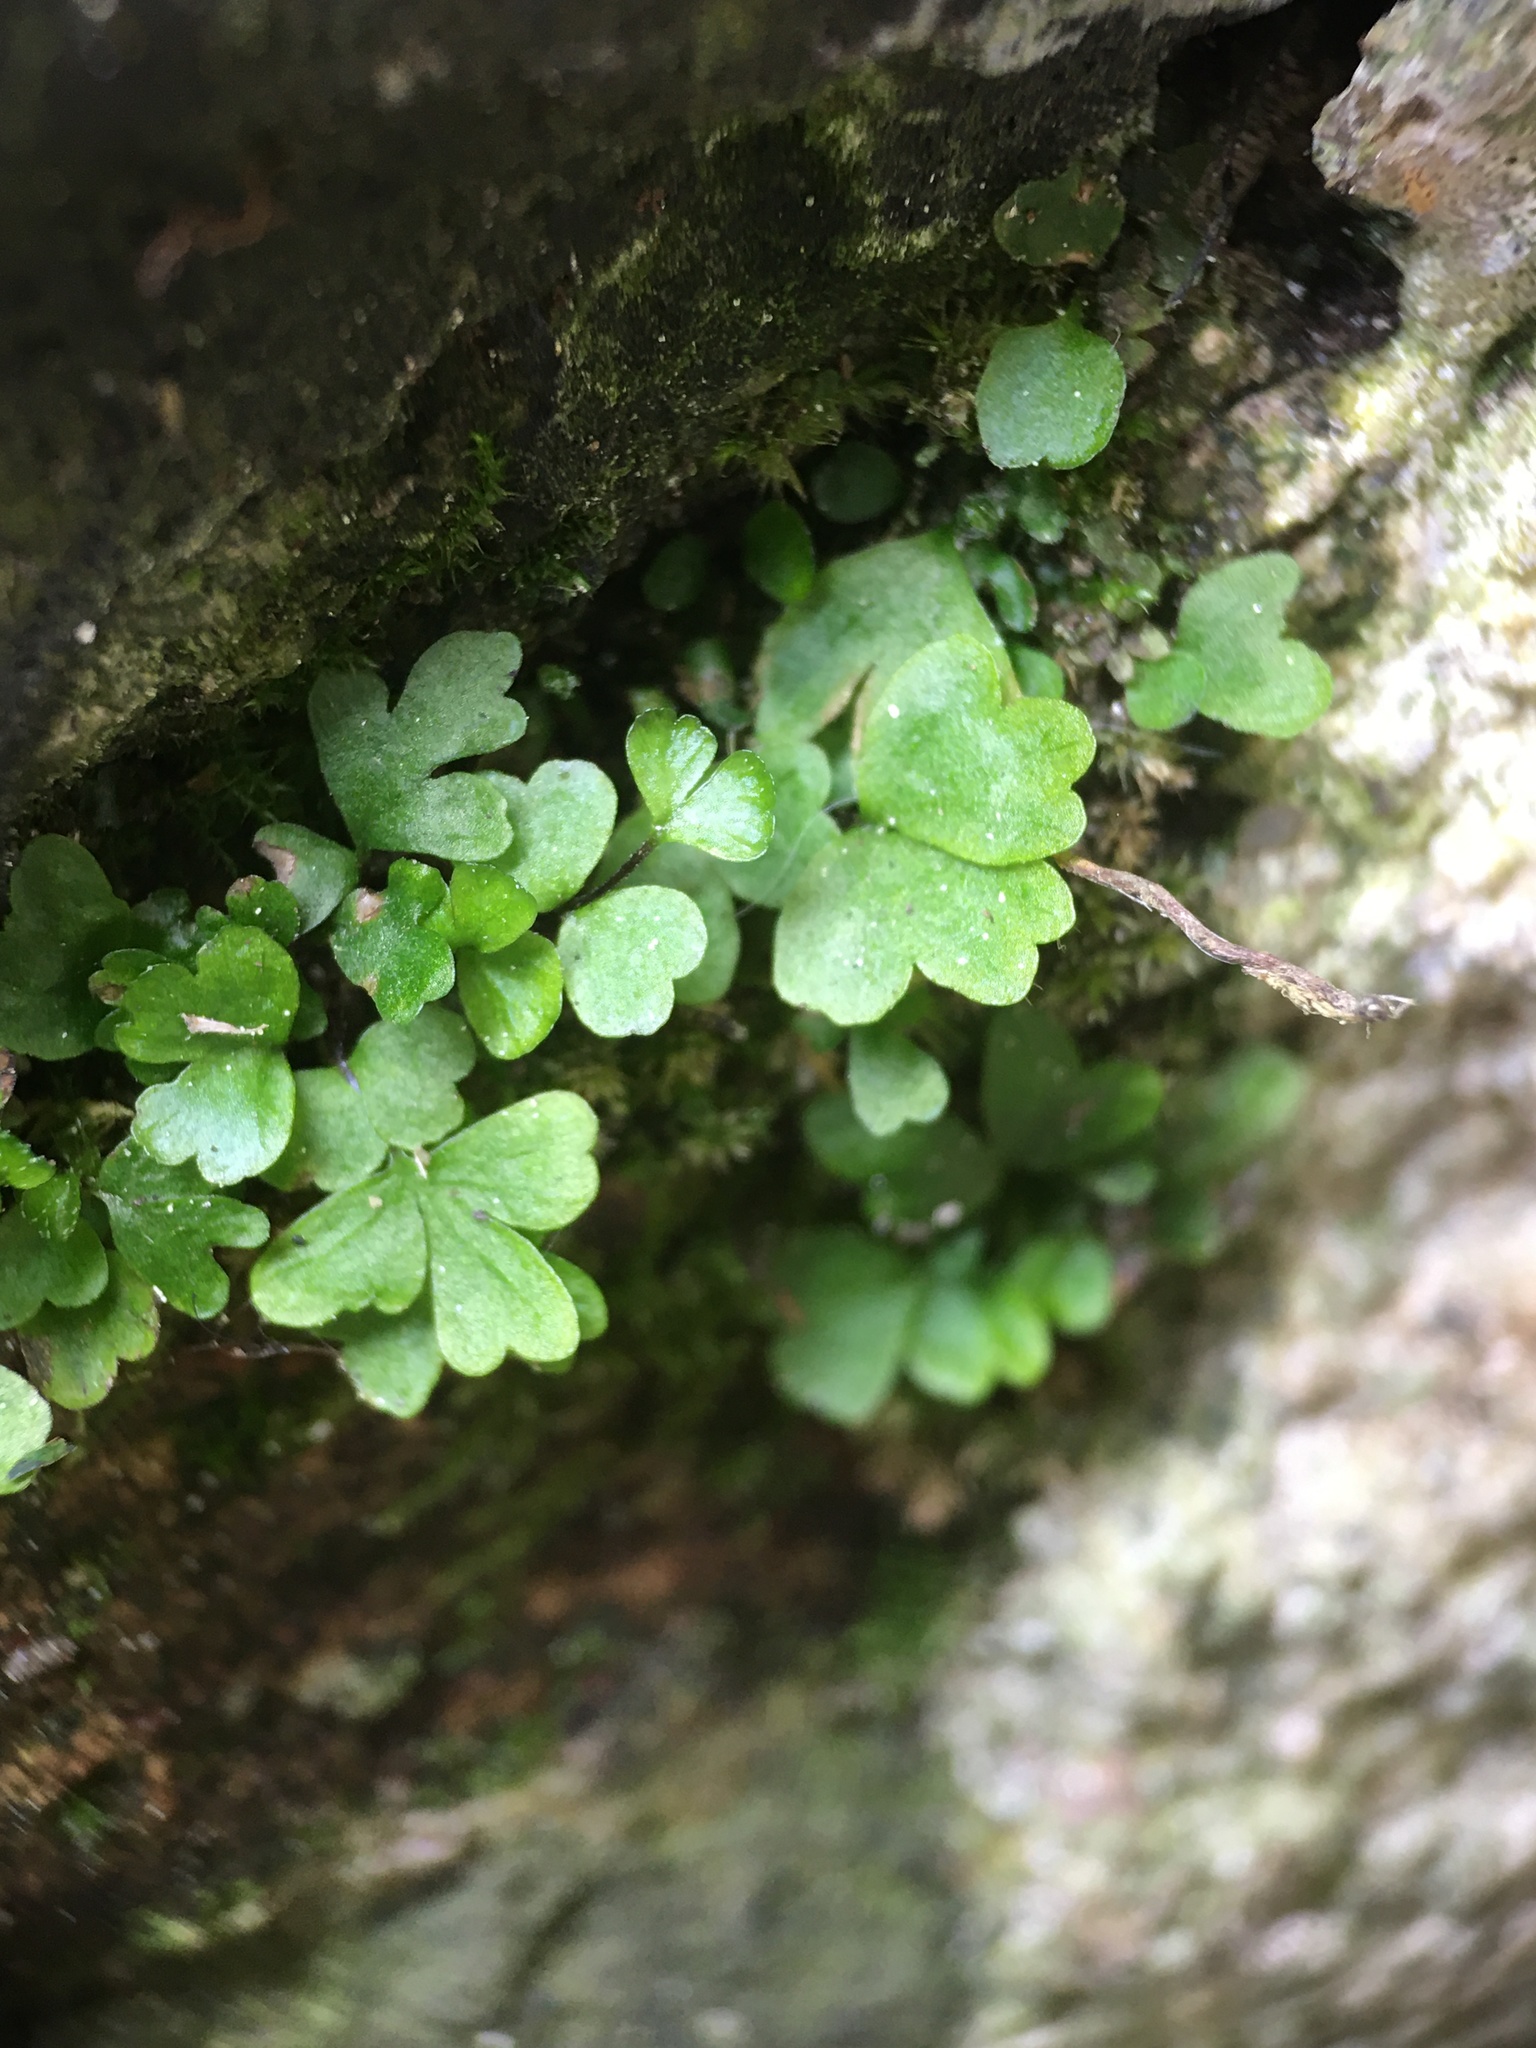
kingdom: Plantae
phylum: Tracheophyta
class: Polypodiopsida
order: Polypodiales
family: Aspleniaceae
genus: Asplenium
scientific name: Asplenium trichomanes
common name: Maidenhair spleenwort
